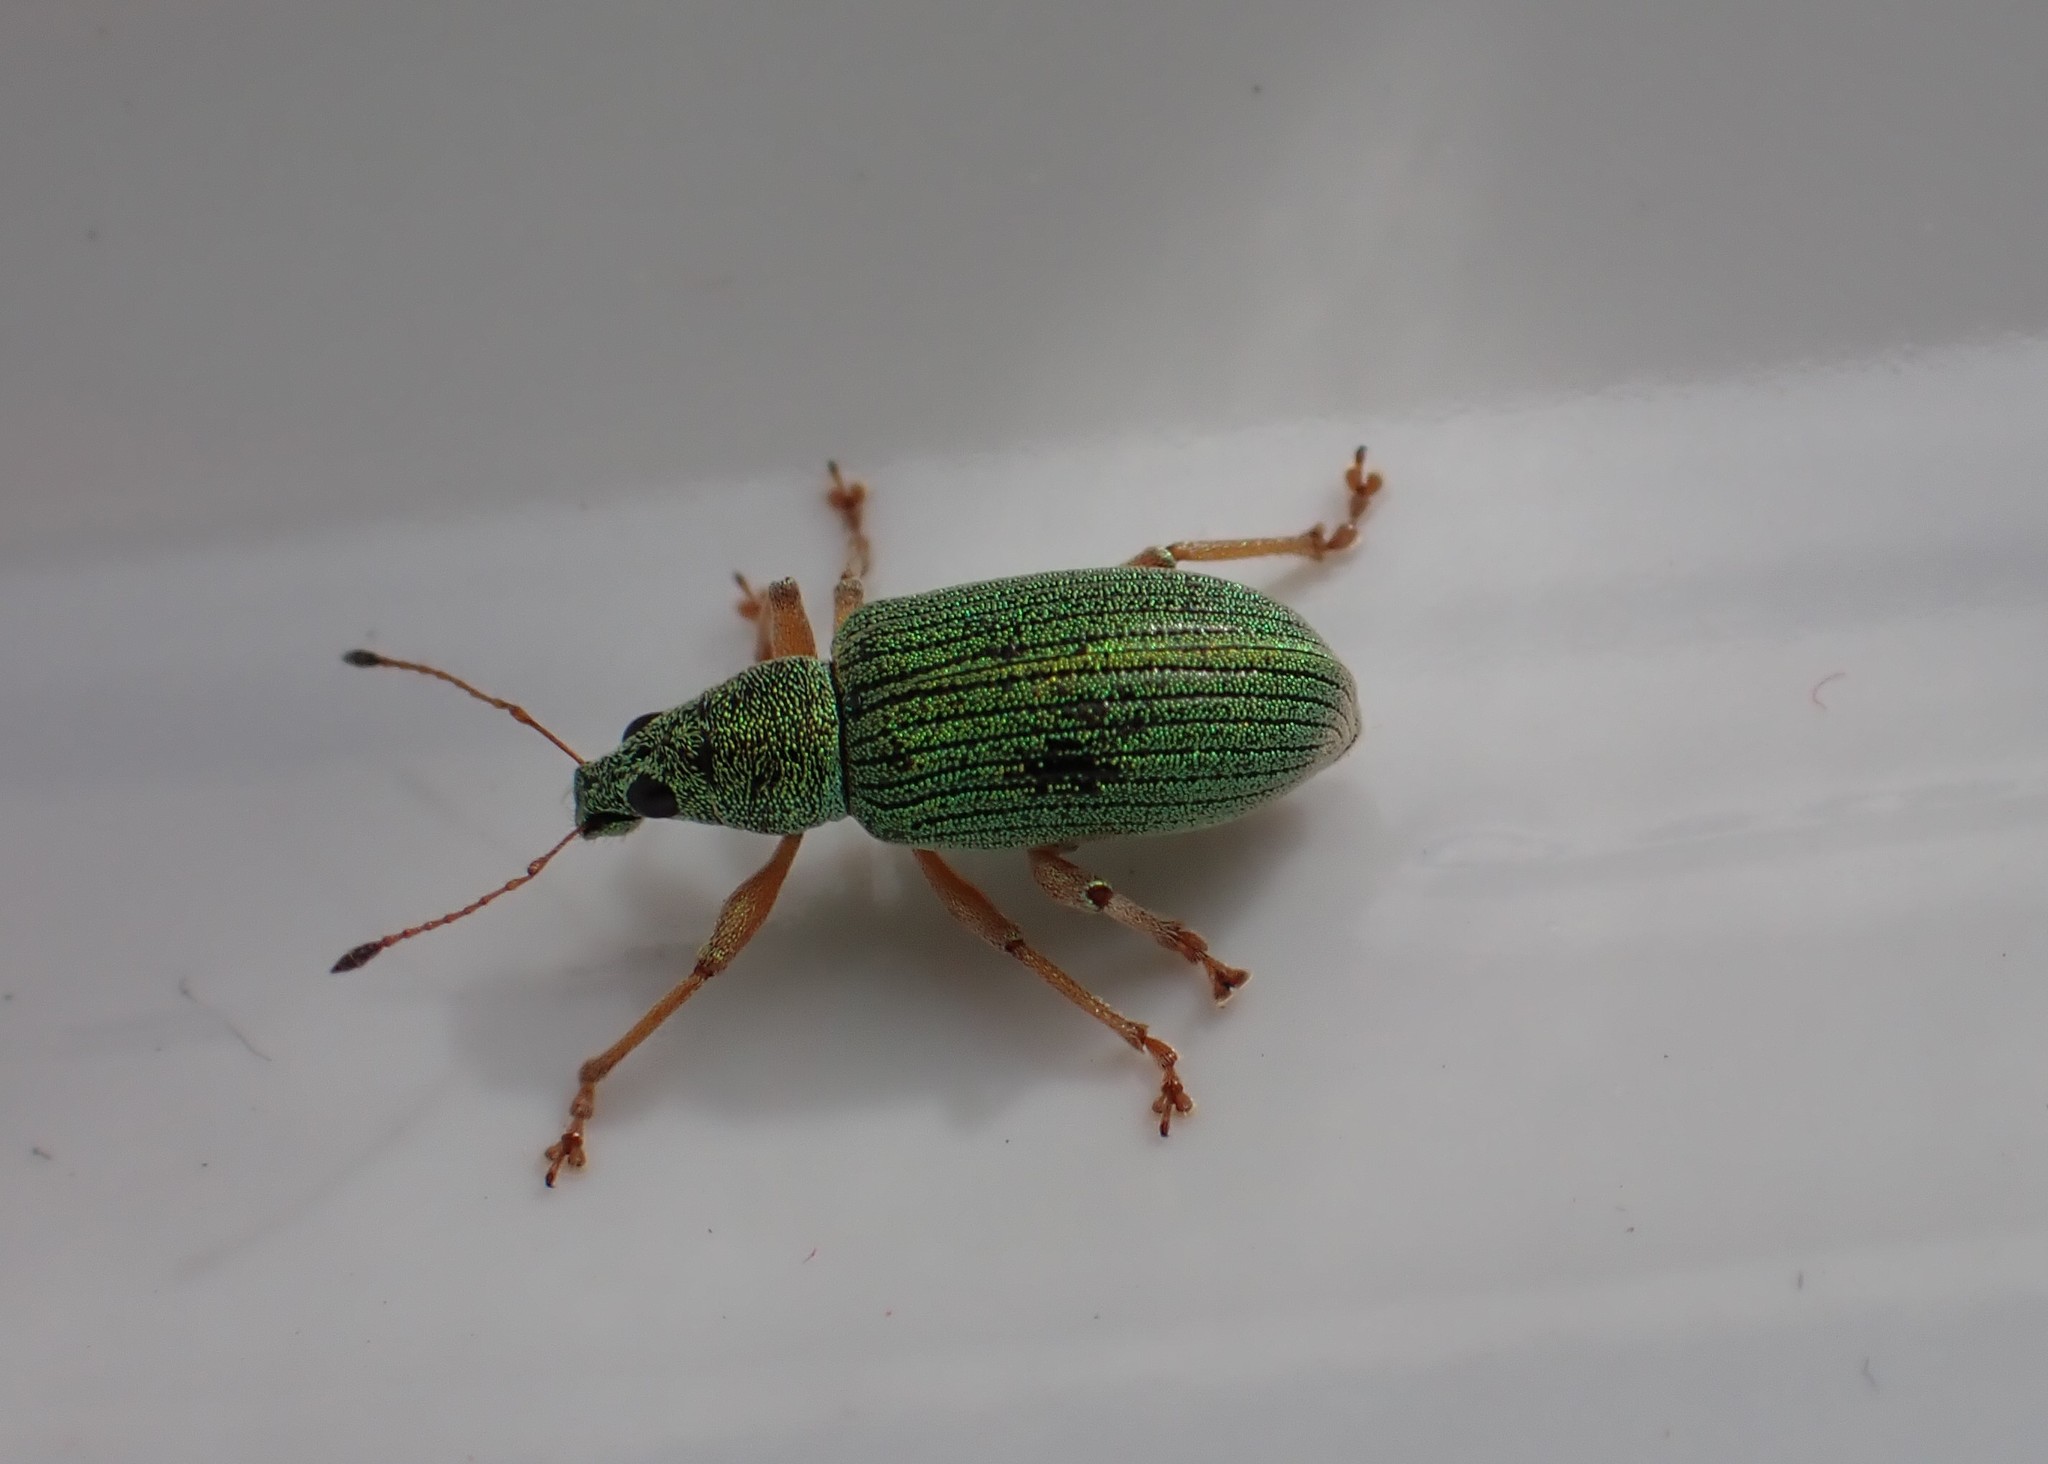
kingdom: Animalia
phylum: Arthropoda
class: Insecta
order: Coleoptera
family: Curculionidae
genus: Polydrusus
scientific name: Polydrusus formosus
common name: Weevil
